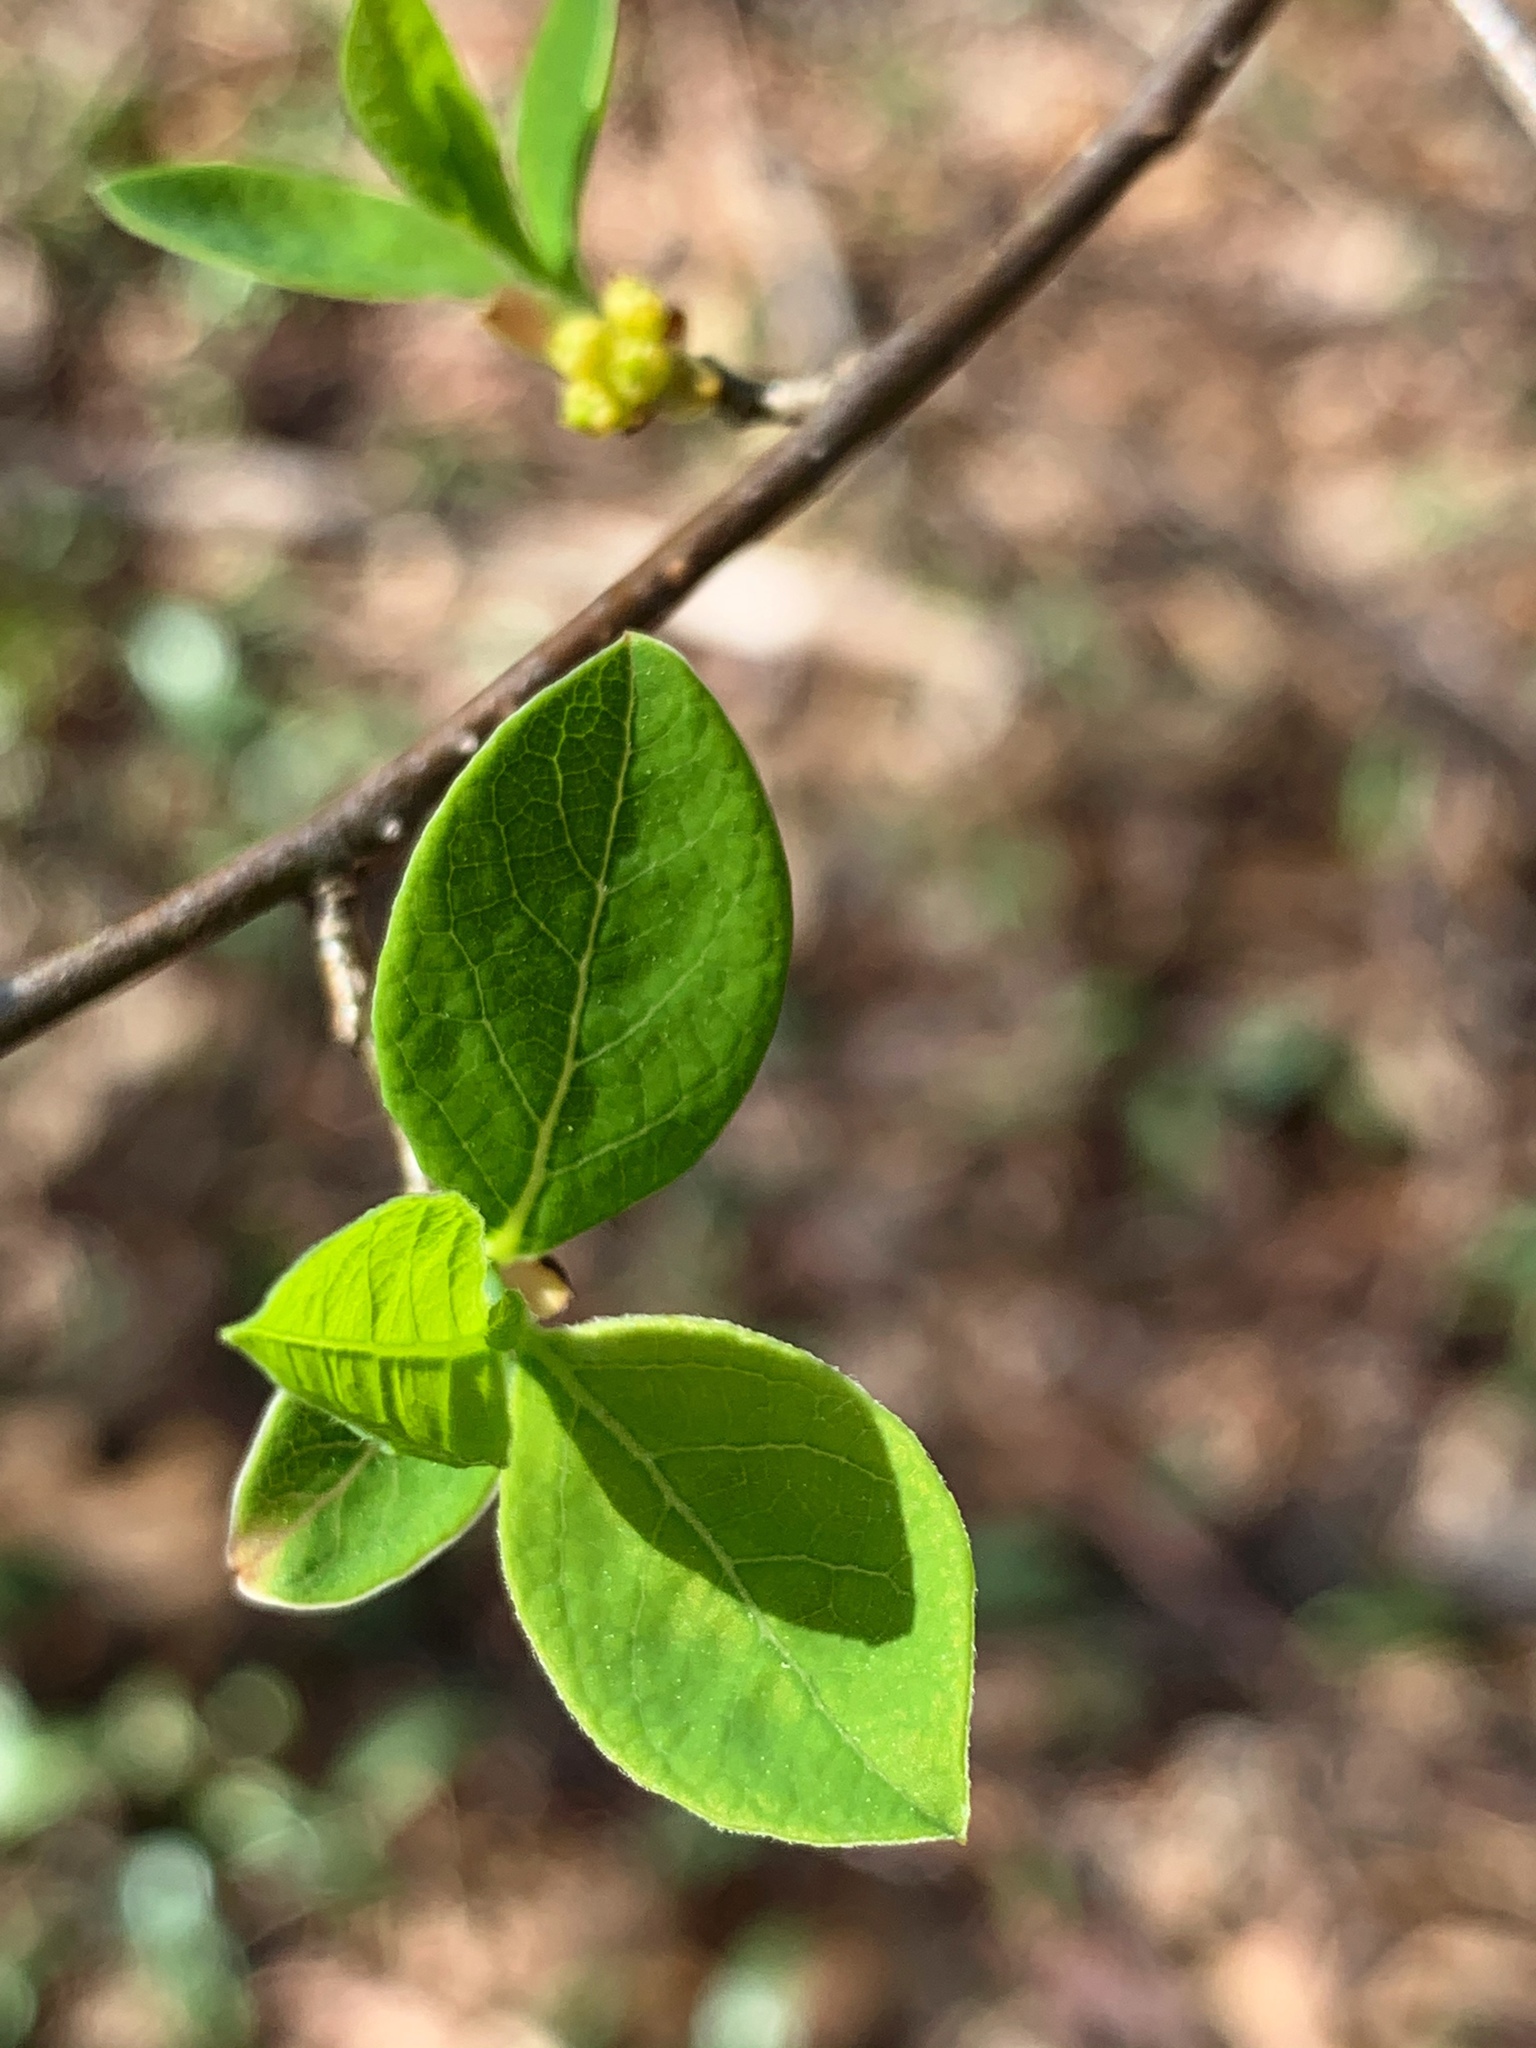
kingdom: Plantae
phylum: Tracheophyta
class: Magnoliopsida
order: Laurales
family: Lauraceae
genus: Lindera
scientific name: Lindera benzoin
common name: Spicebush
